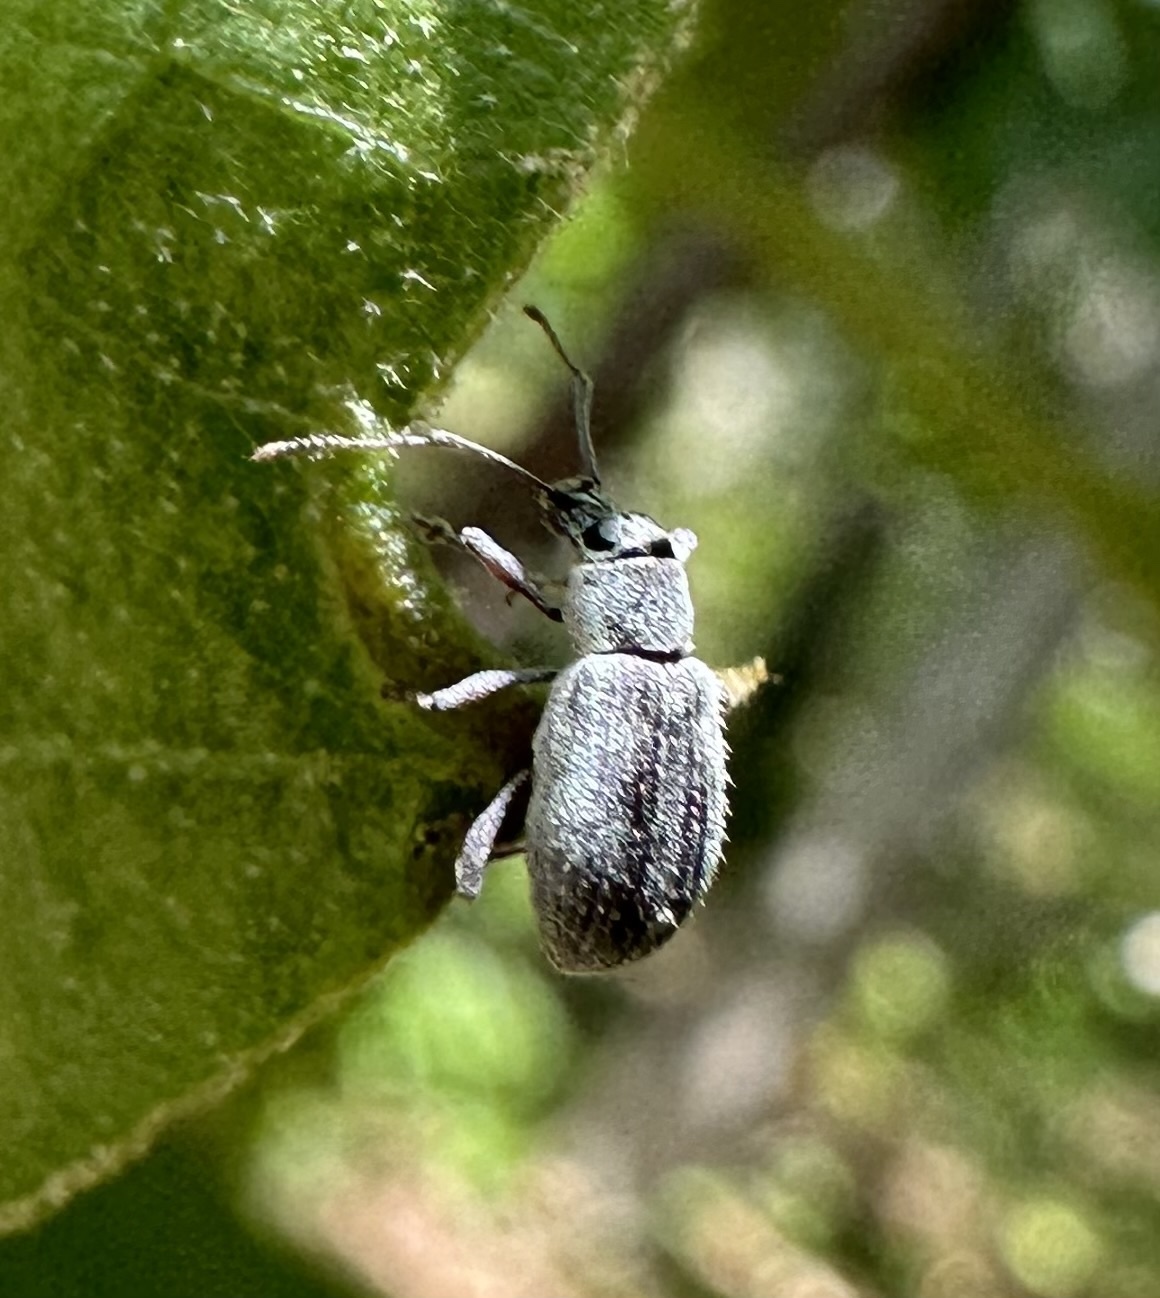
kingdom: Animalia
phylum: Arthropoda
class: Insecta
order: Coleoptera
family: Curculionidae
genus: Cyrtepistomus
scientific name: Cyrtepistomus castaneus
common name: Weevil
